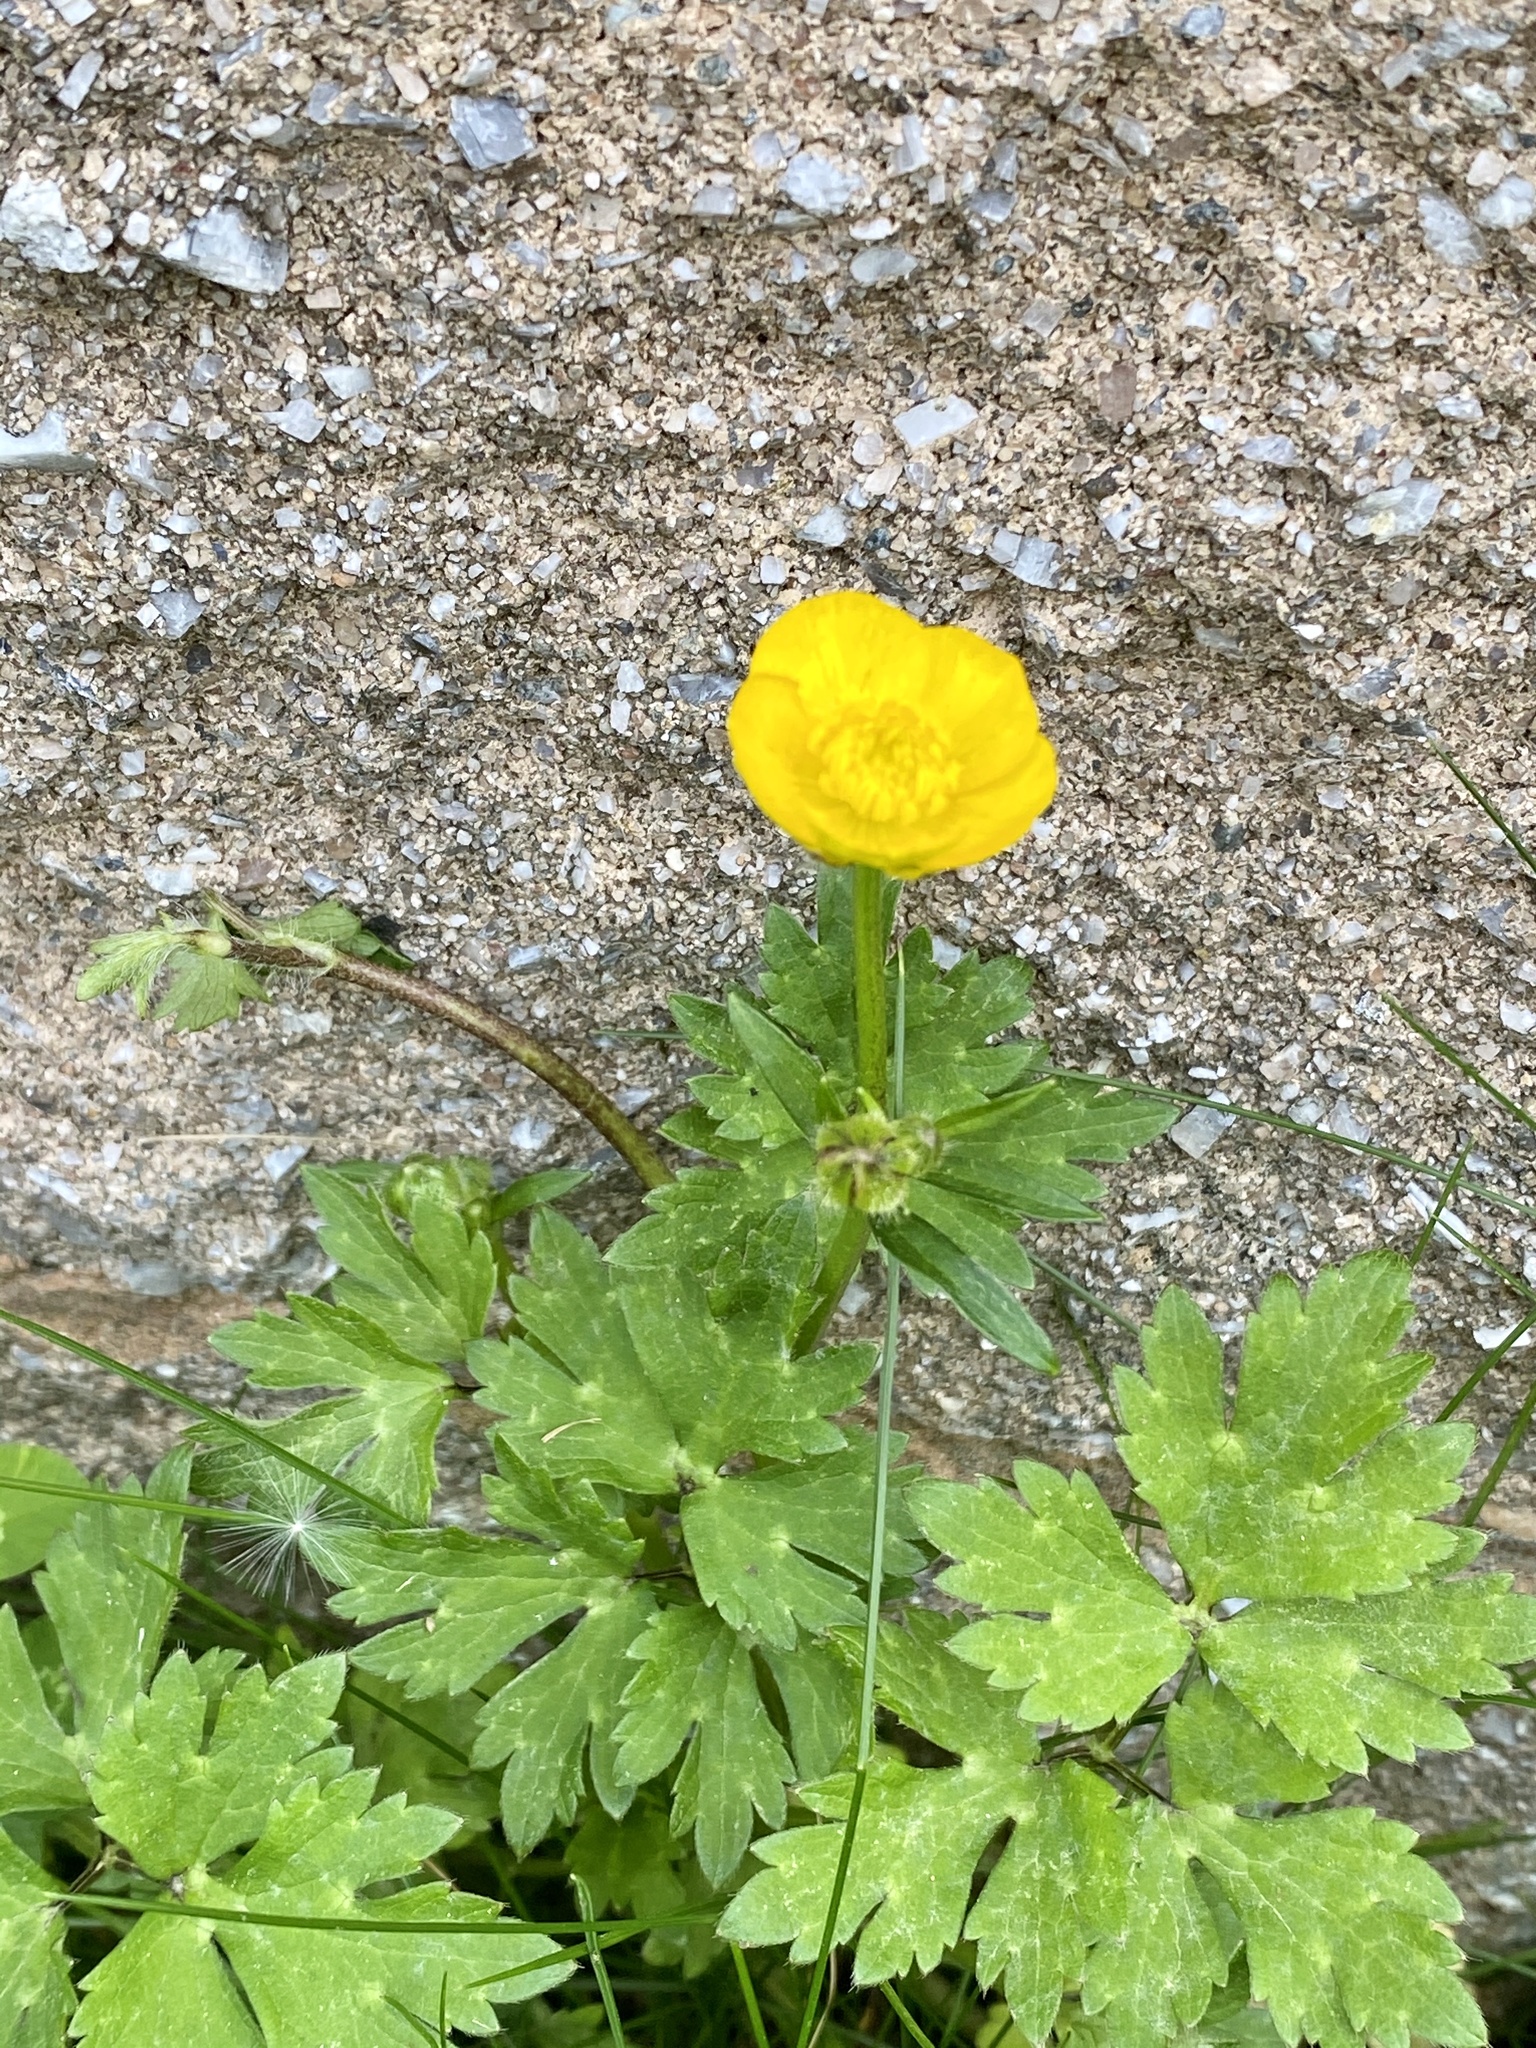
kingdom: Plantae
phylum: Tracheophyta
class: Magnoliopsida
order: Ranunculales
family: Ranunculaceae
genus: Ranunculus
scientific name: Ranunculus repens
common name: Creeping buttercup
